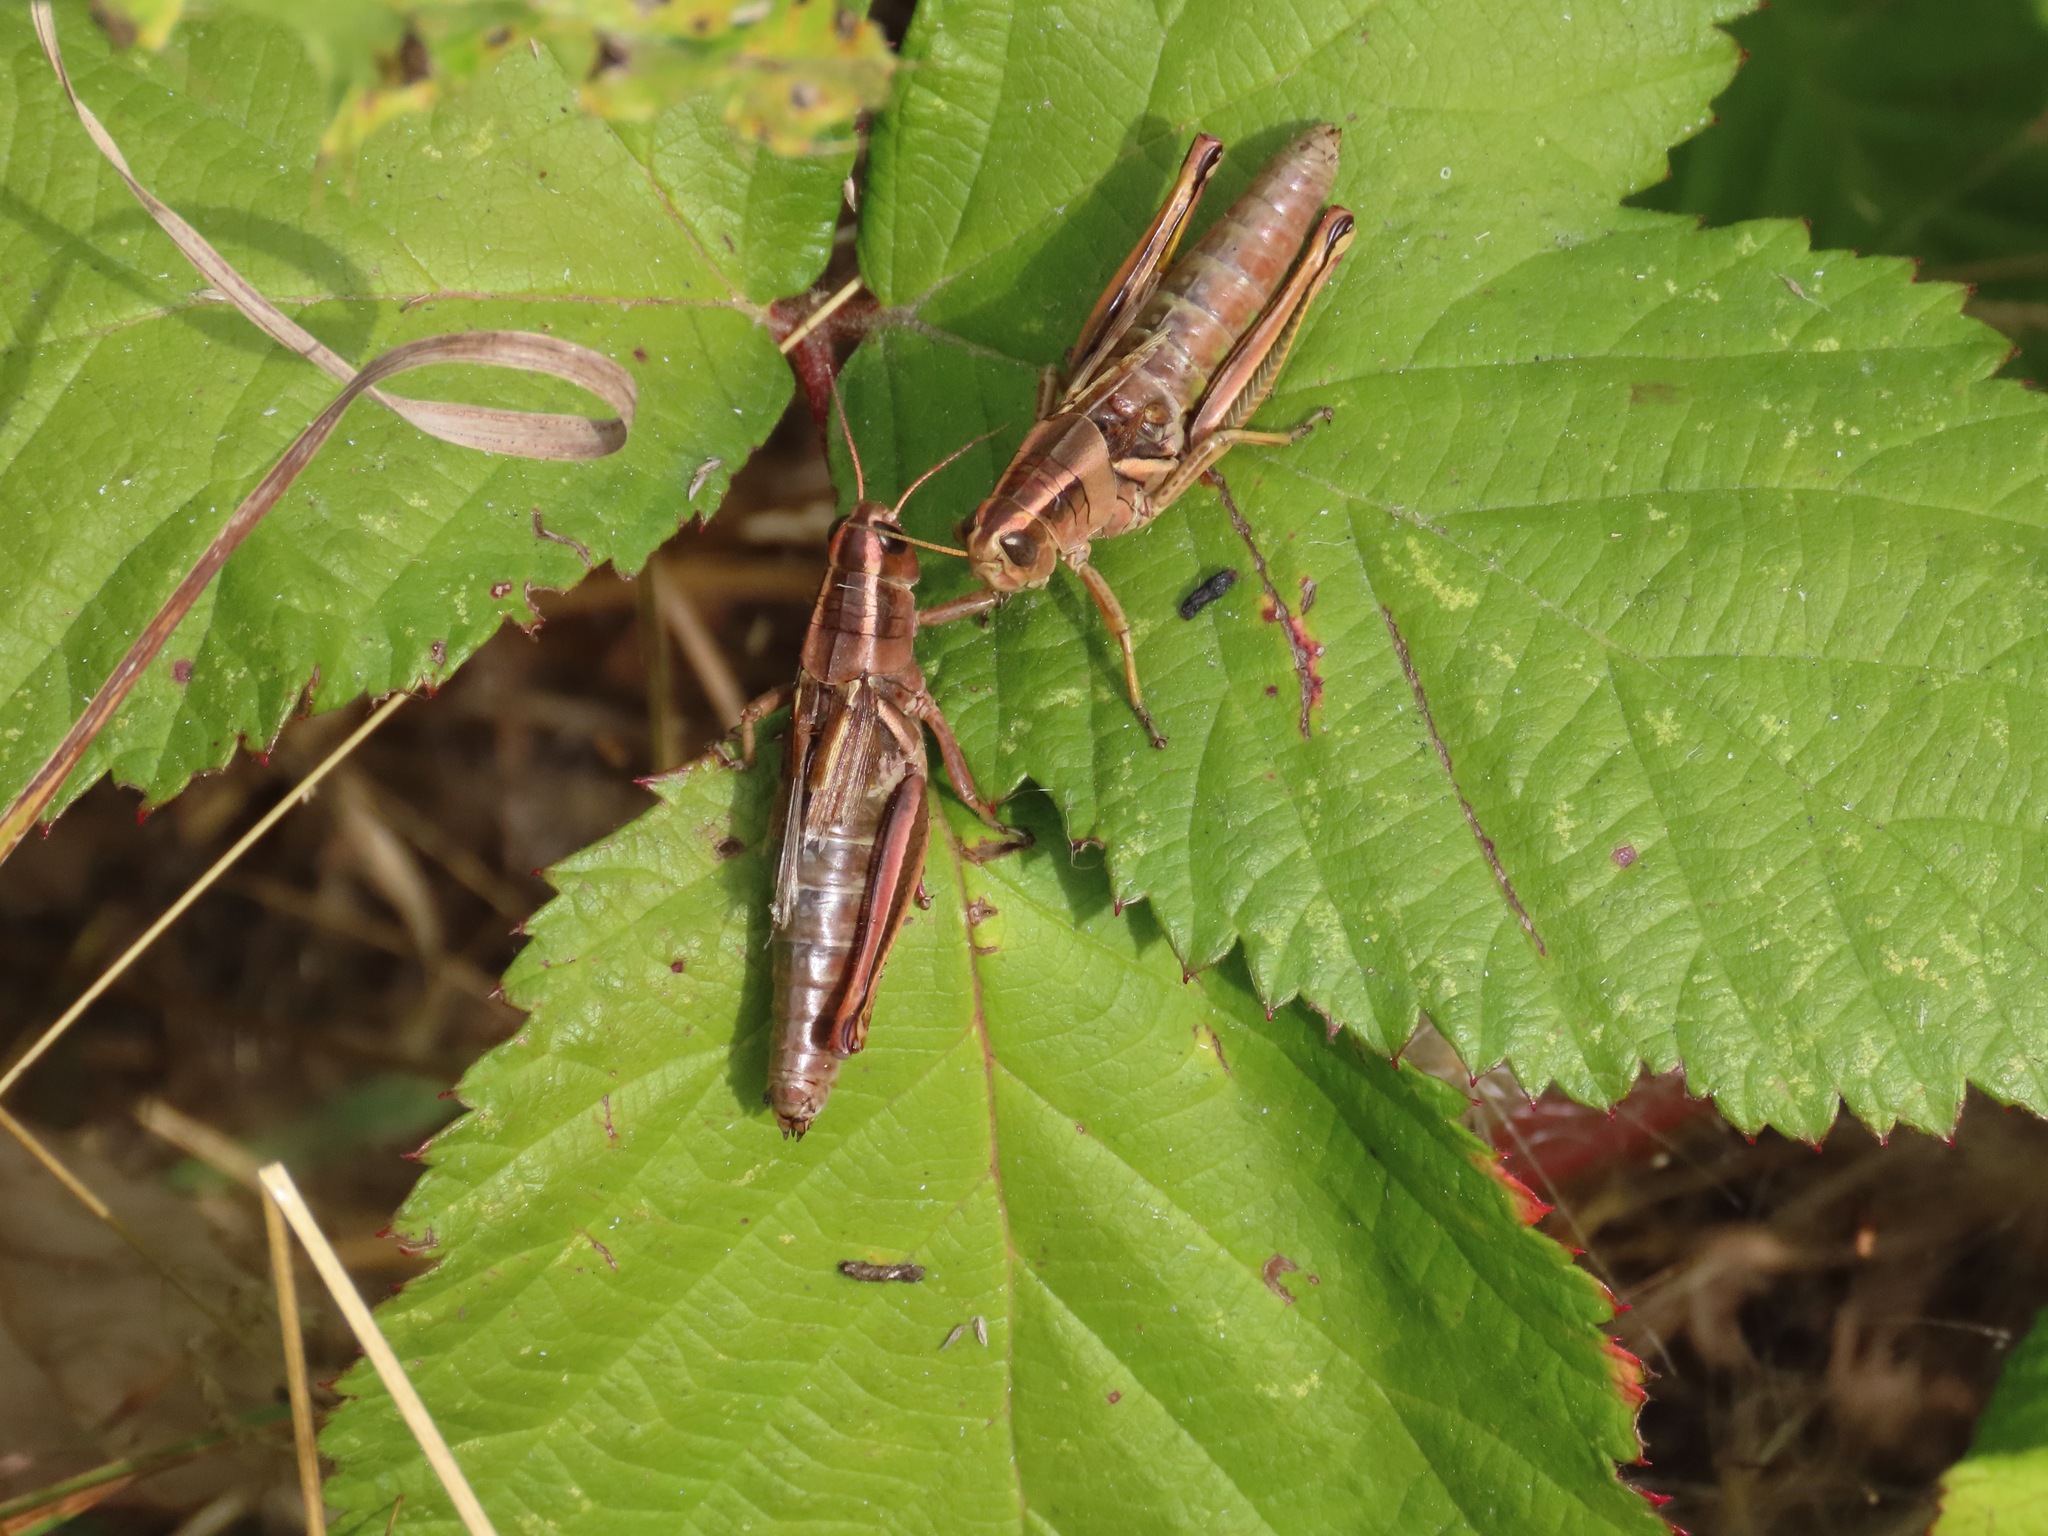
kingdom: Animalia
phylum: Arthropoda
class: Insecta
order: Orthoptera
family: Acrididae
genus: Melanoplus
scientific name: Melanoplus bivittatus
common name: Two-striped grasshopper
